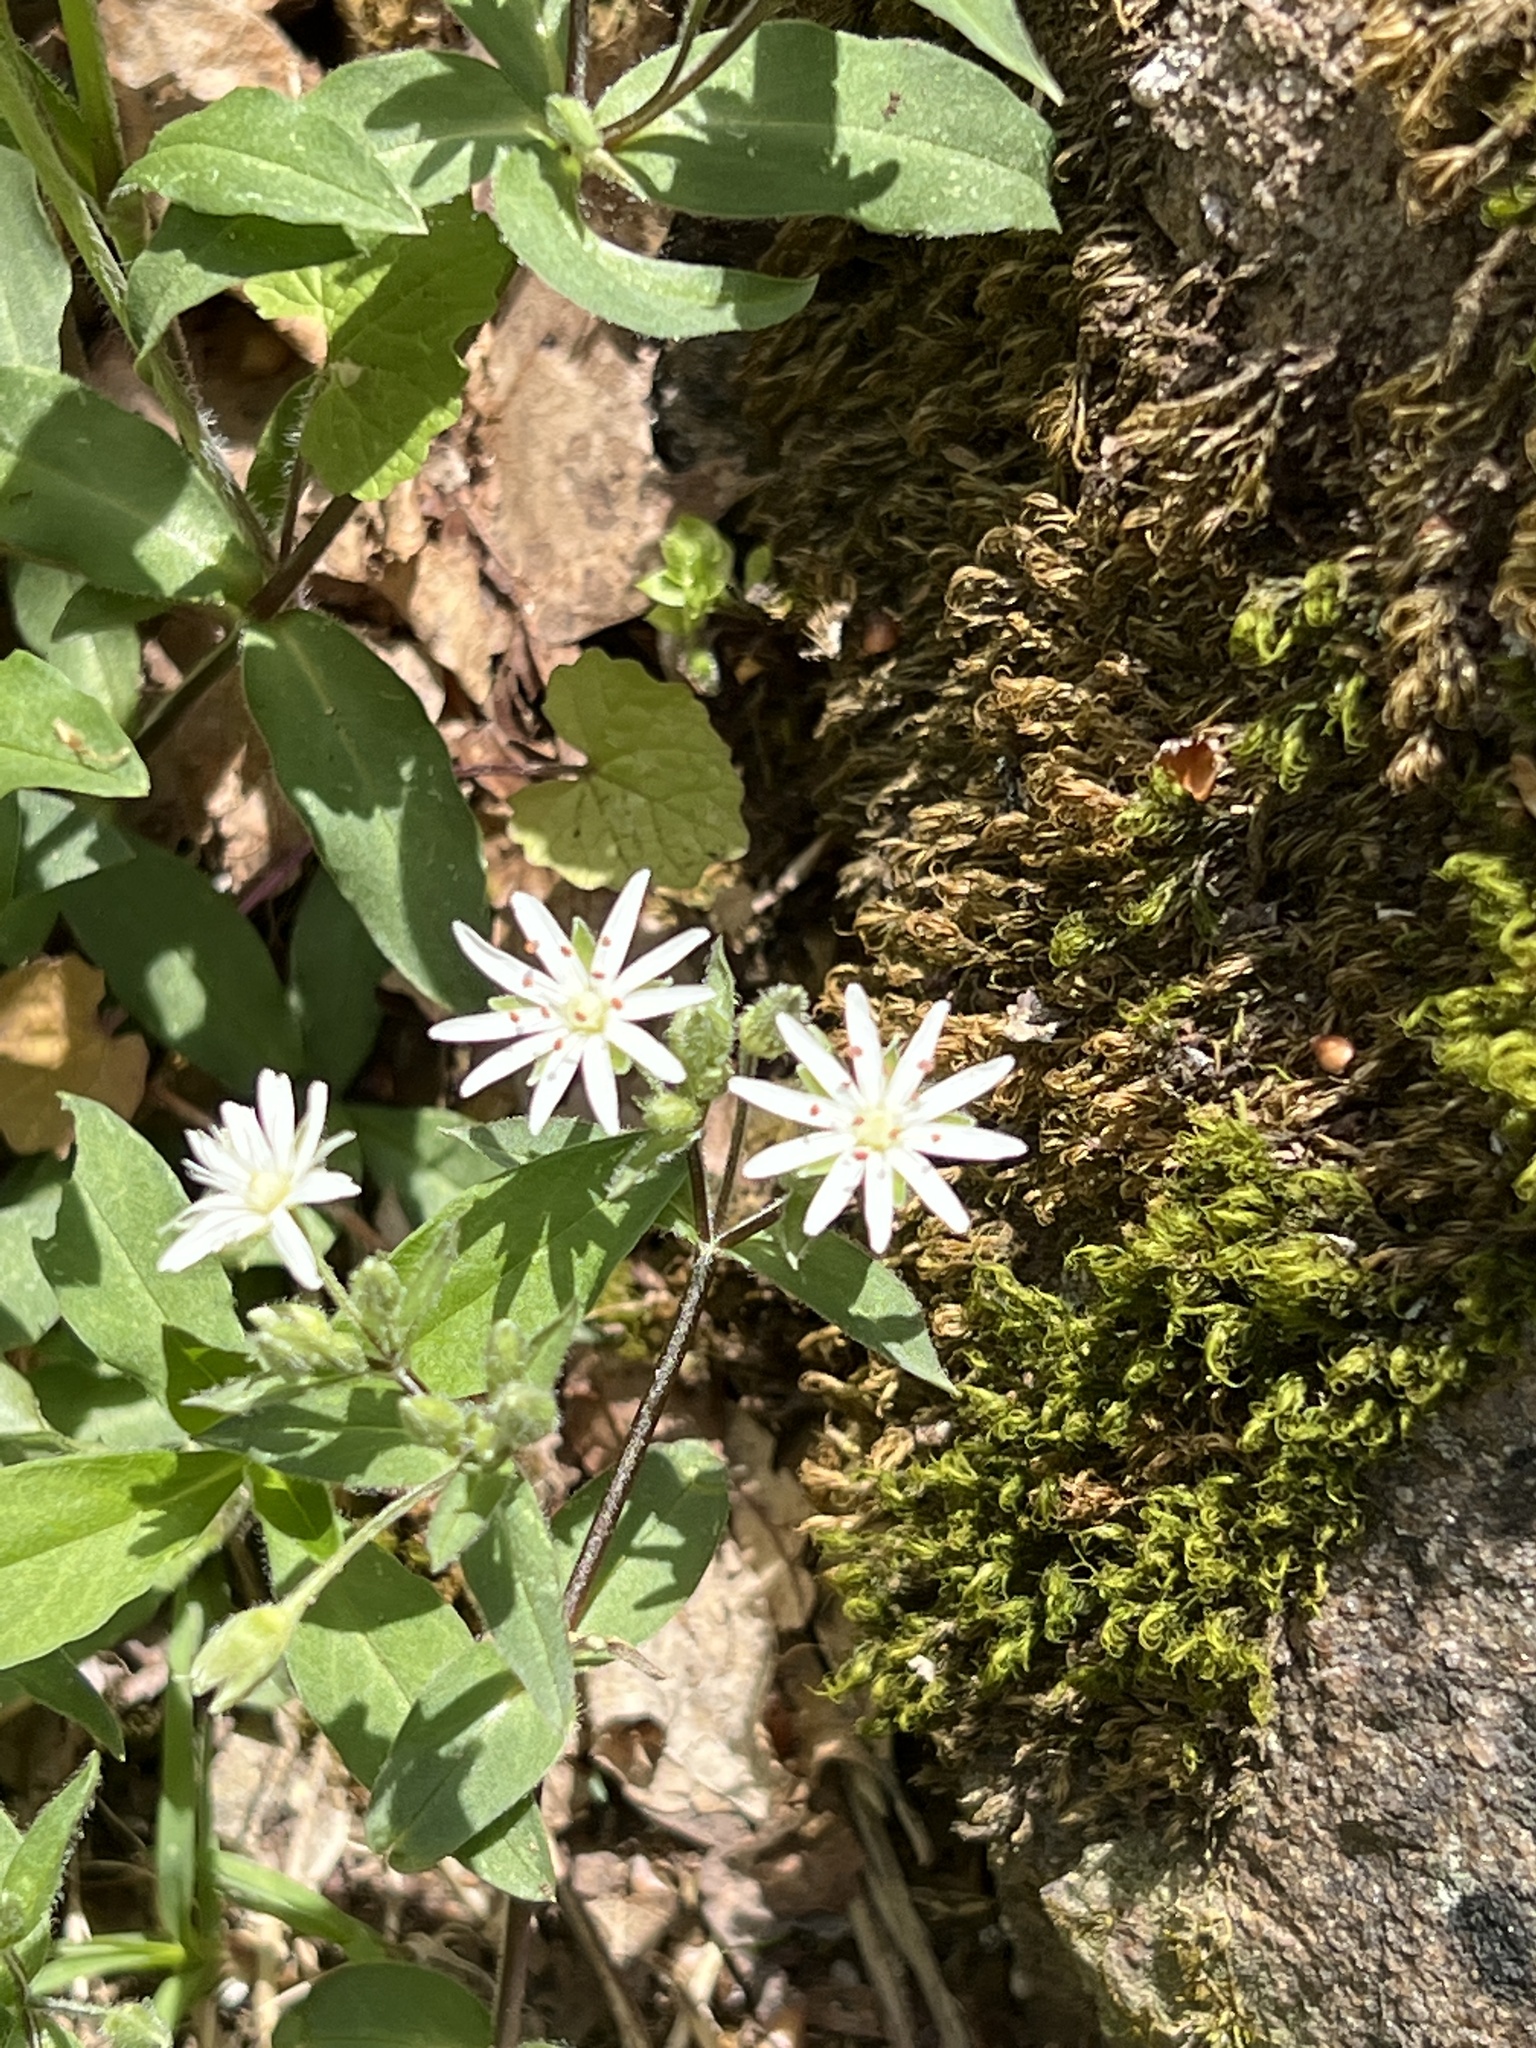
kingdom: Plantae
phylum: Tracheophyta
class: Magnoliopsida
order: Caryophyllales
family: Caryophyllaceae
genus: Stellaria
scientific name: Stellaria pubera
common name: Star chickweed
